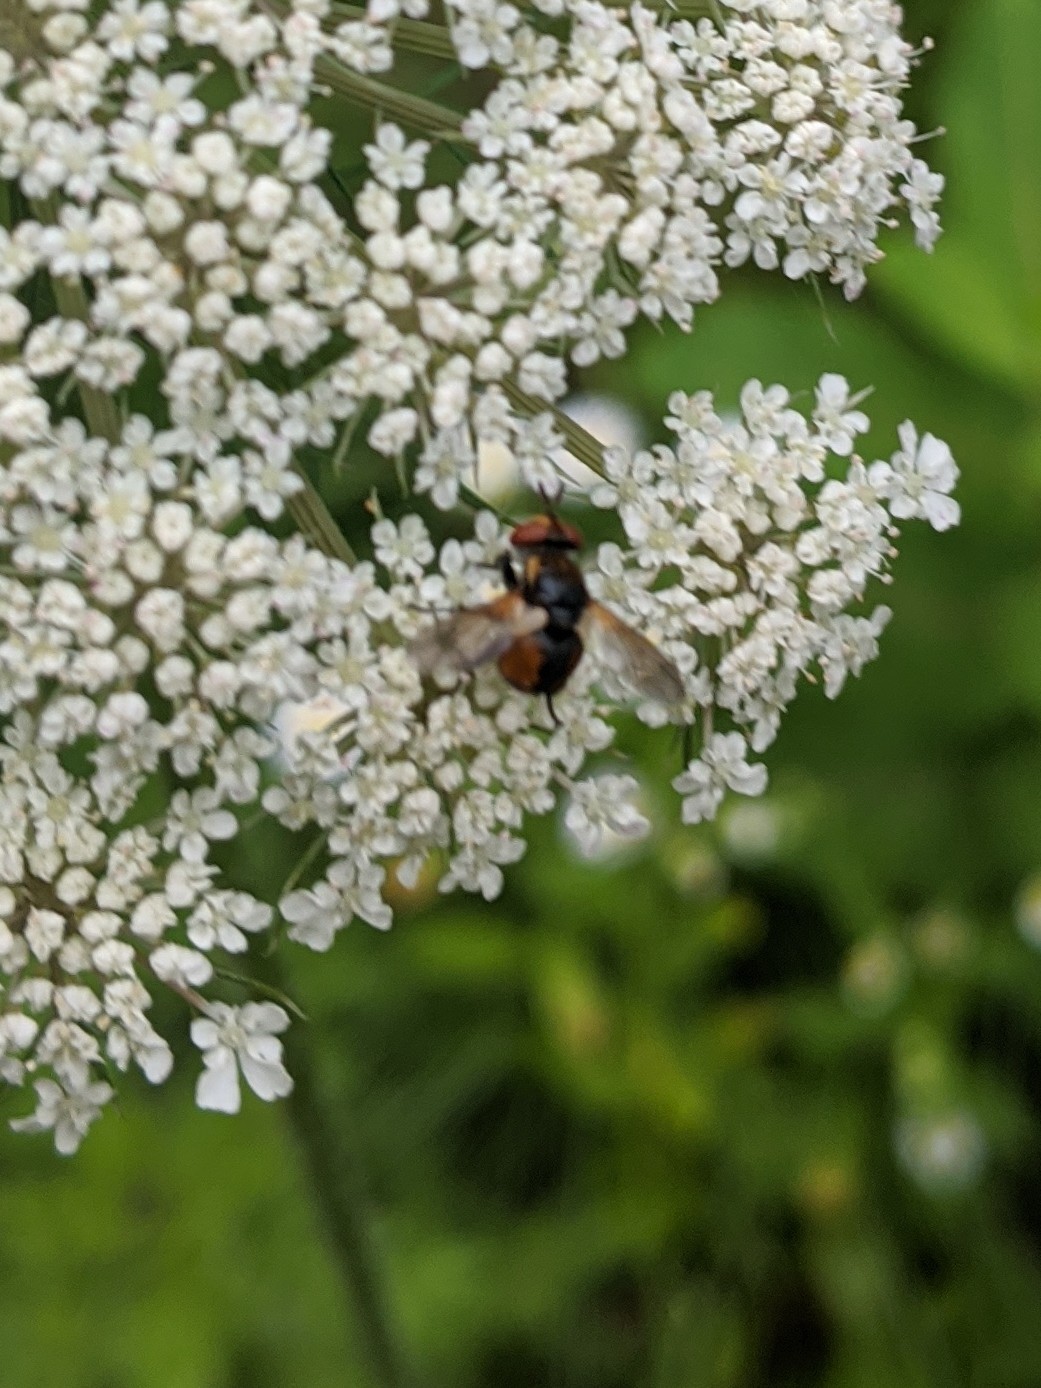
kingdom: Animalia
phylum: Arthropoda
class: Insecta
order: Diptera
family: Tachinidae
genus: Gymnosoma
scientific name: Gymnosoma
